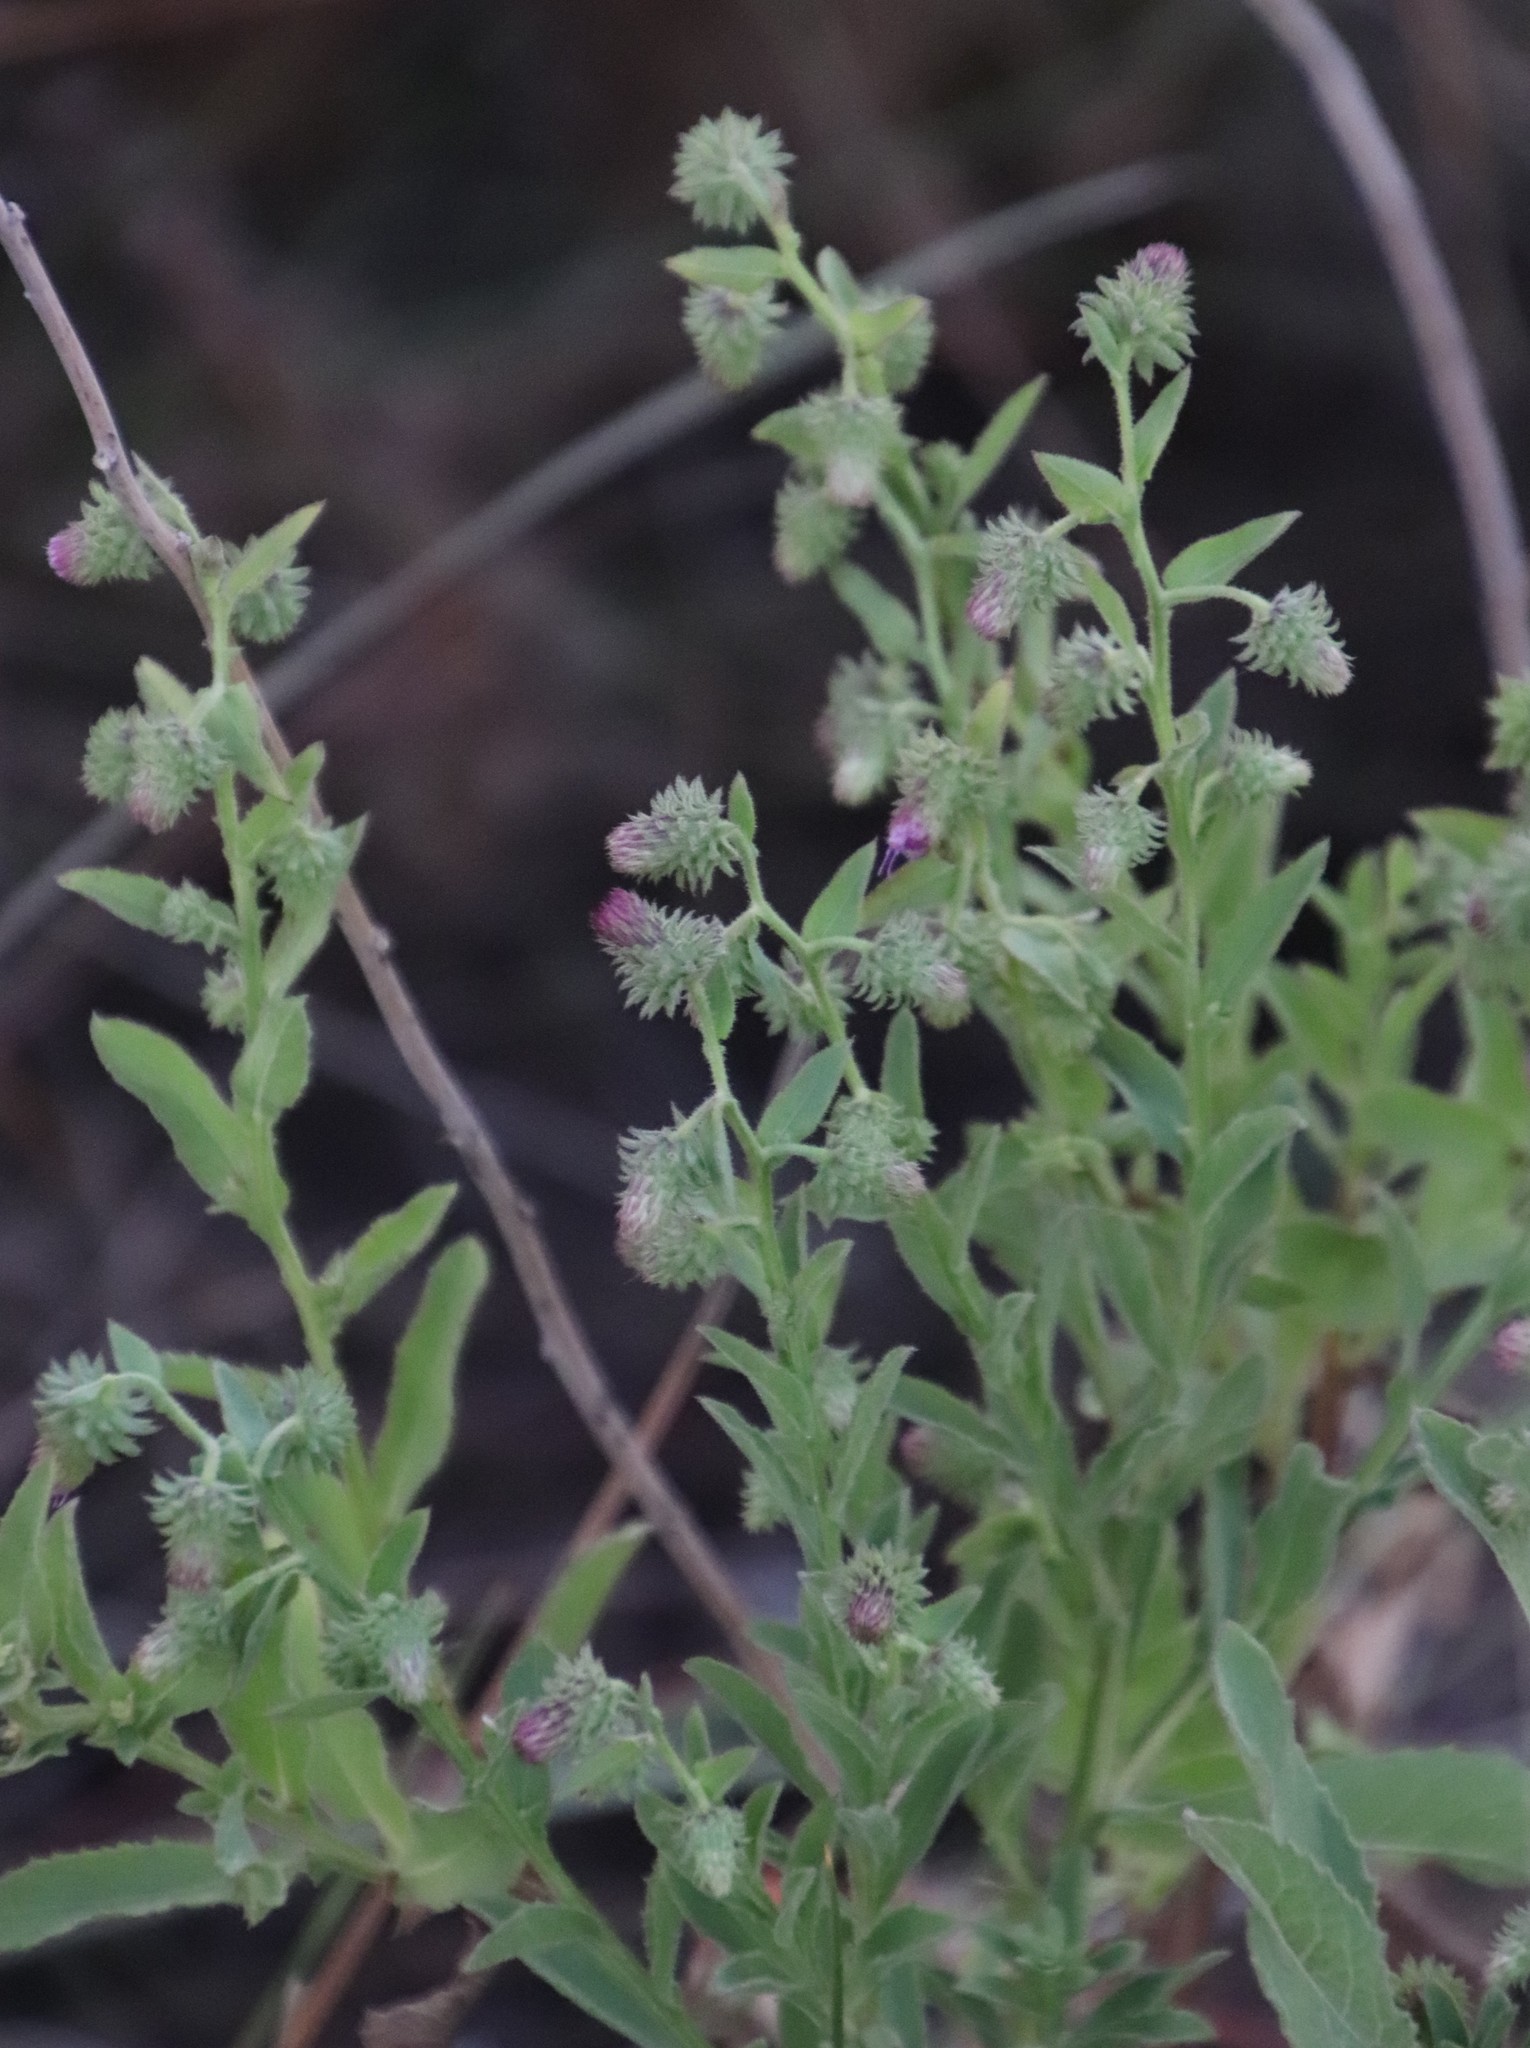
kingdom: Plantae
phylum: Tracheophyta
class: Magnoliopsida
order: Asterales
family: Asteraceae
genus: Laggera
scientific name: Laggera crispata
